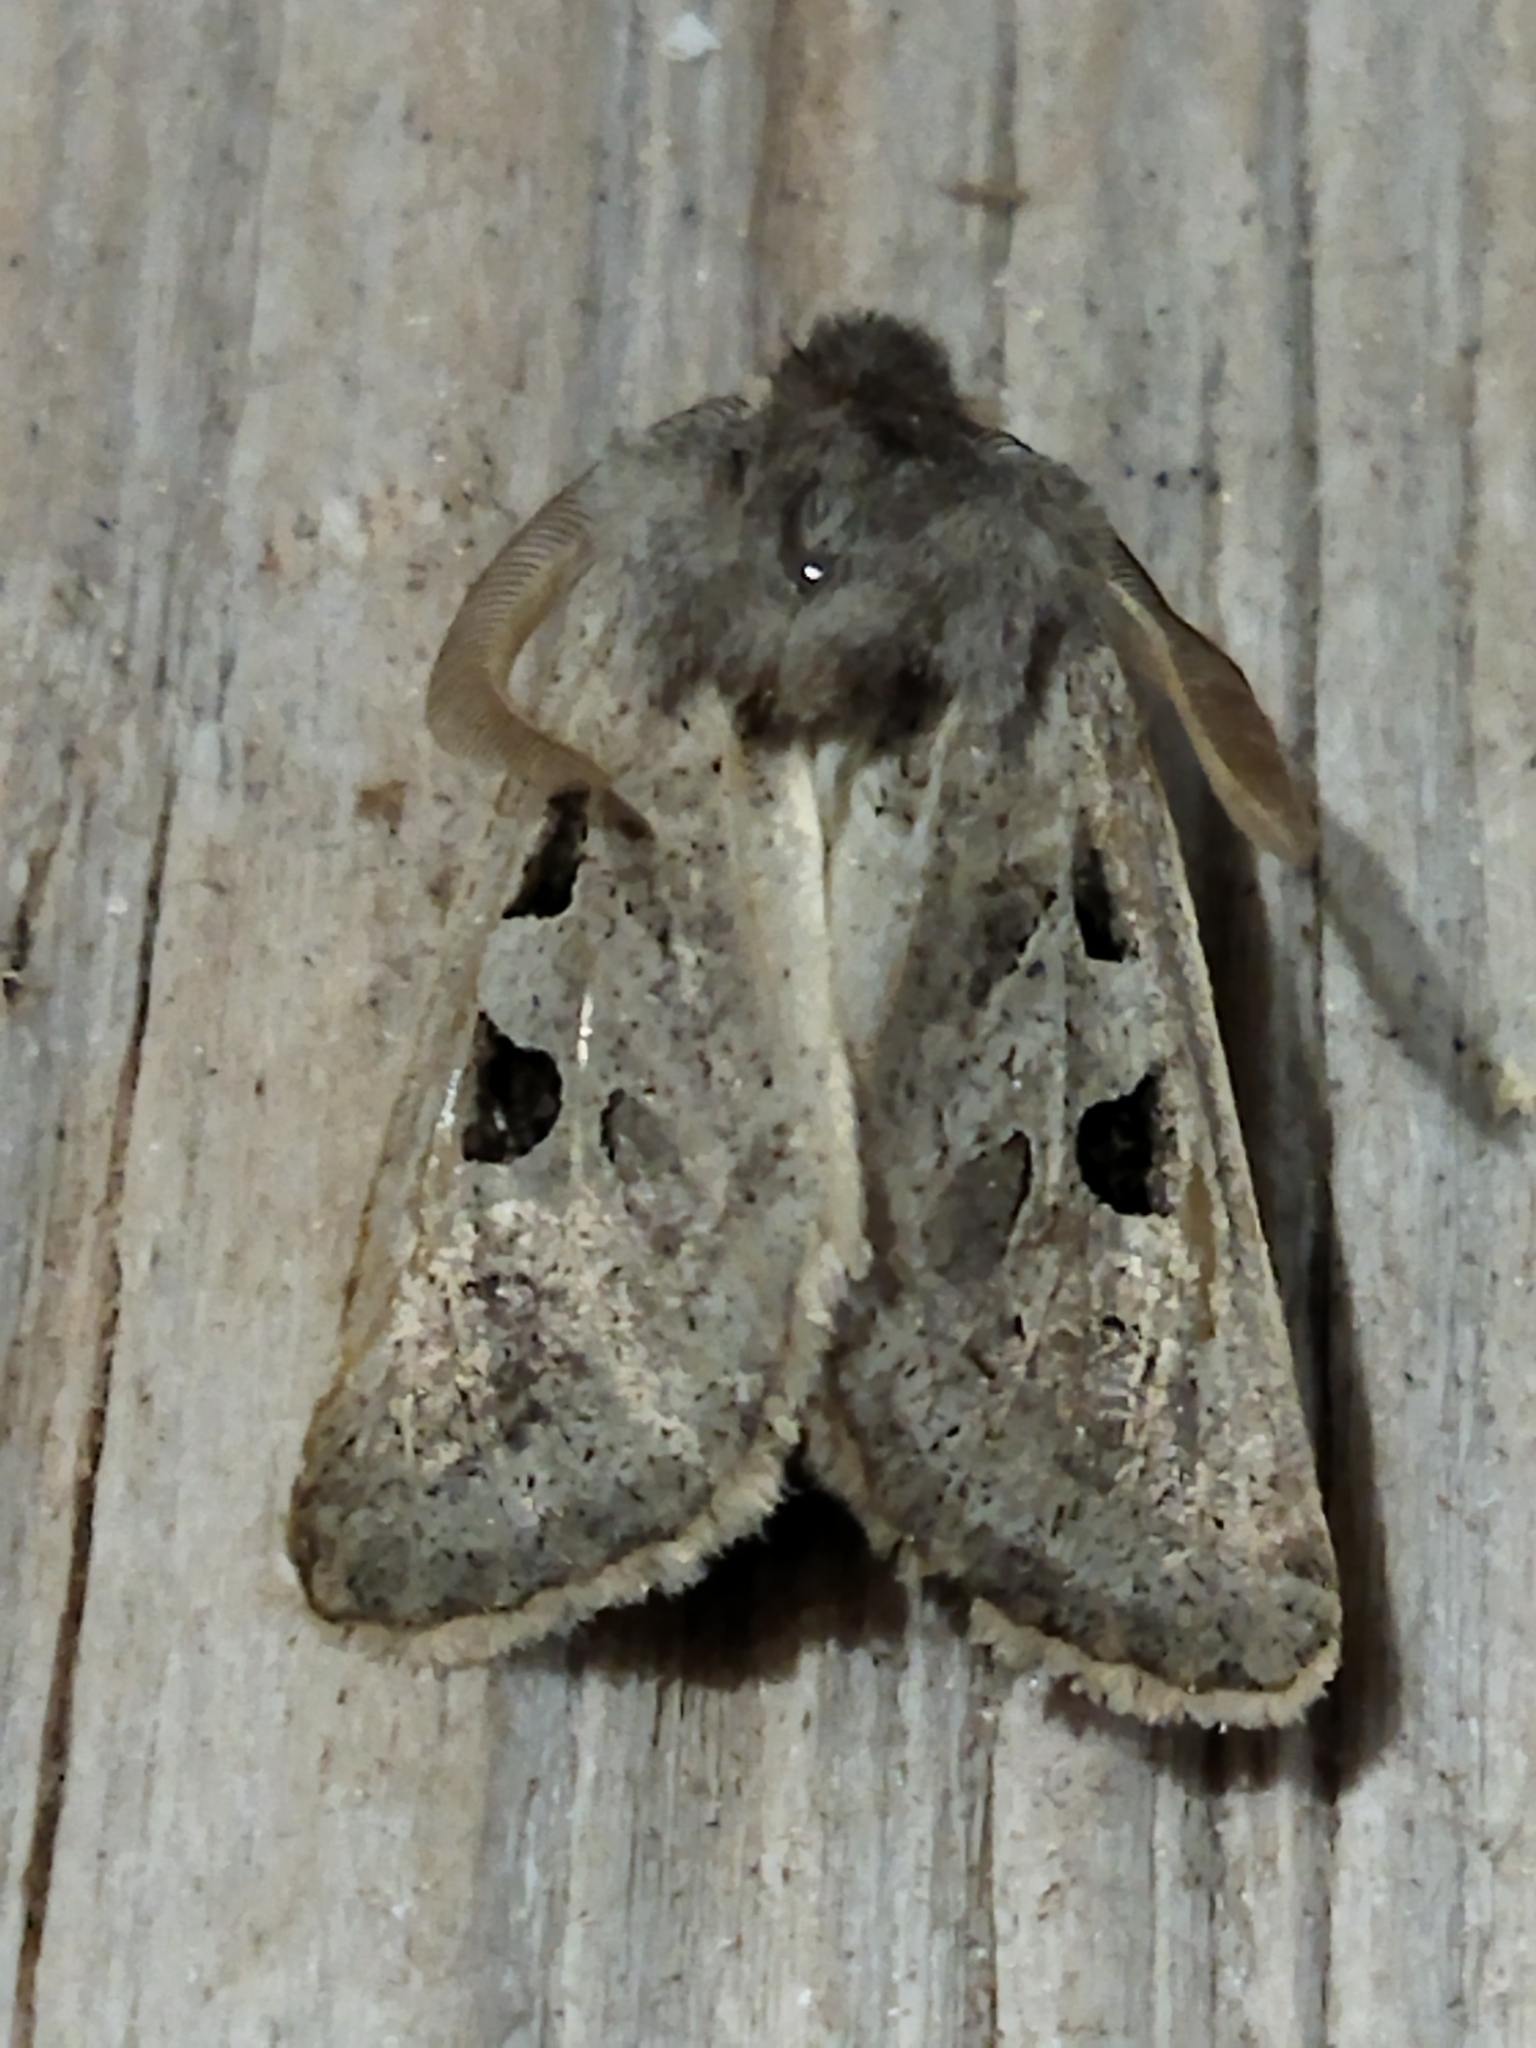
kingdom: Animalia
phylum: Arthropoda
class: Insecta
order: Lepidoptera
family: Noctuidae
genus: Episema
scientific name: Episema tersa
